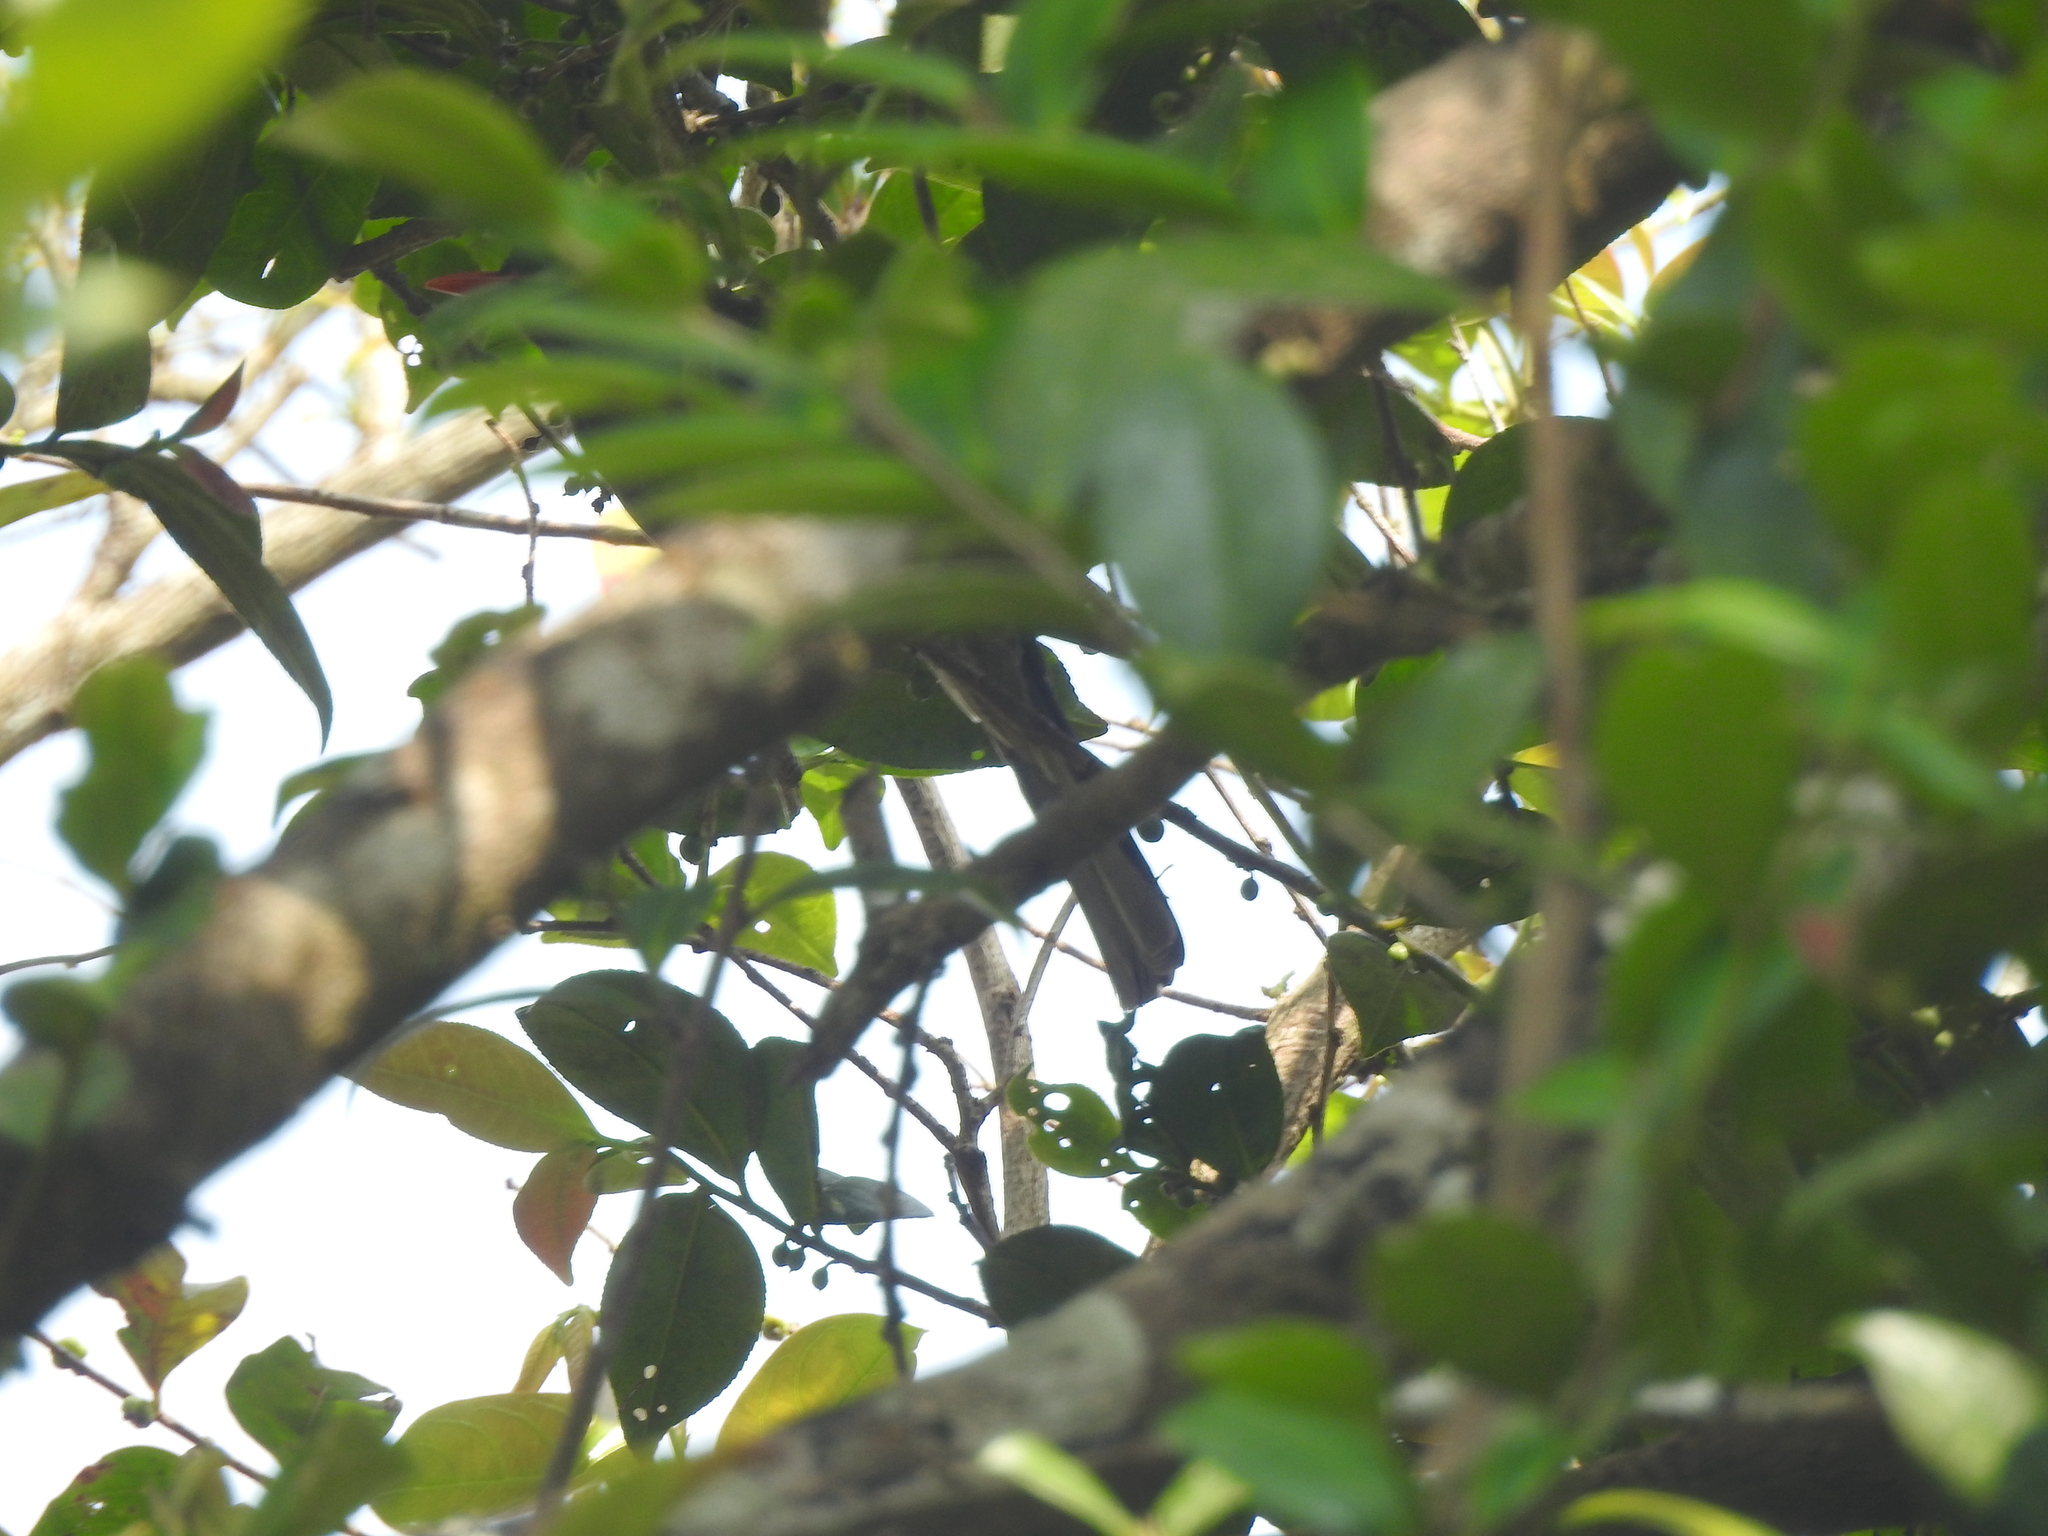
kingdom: Animalia
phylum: Chordata
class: Aves
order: Passeriformes
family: Pycnonotidae
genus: Hypsipetes
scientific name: Hypsipetes ganeesa
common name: Square-tailed bulbul
